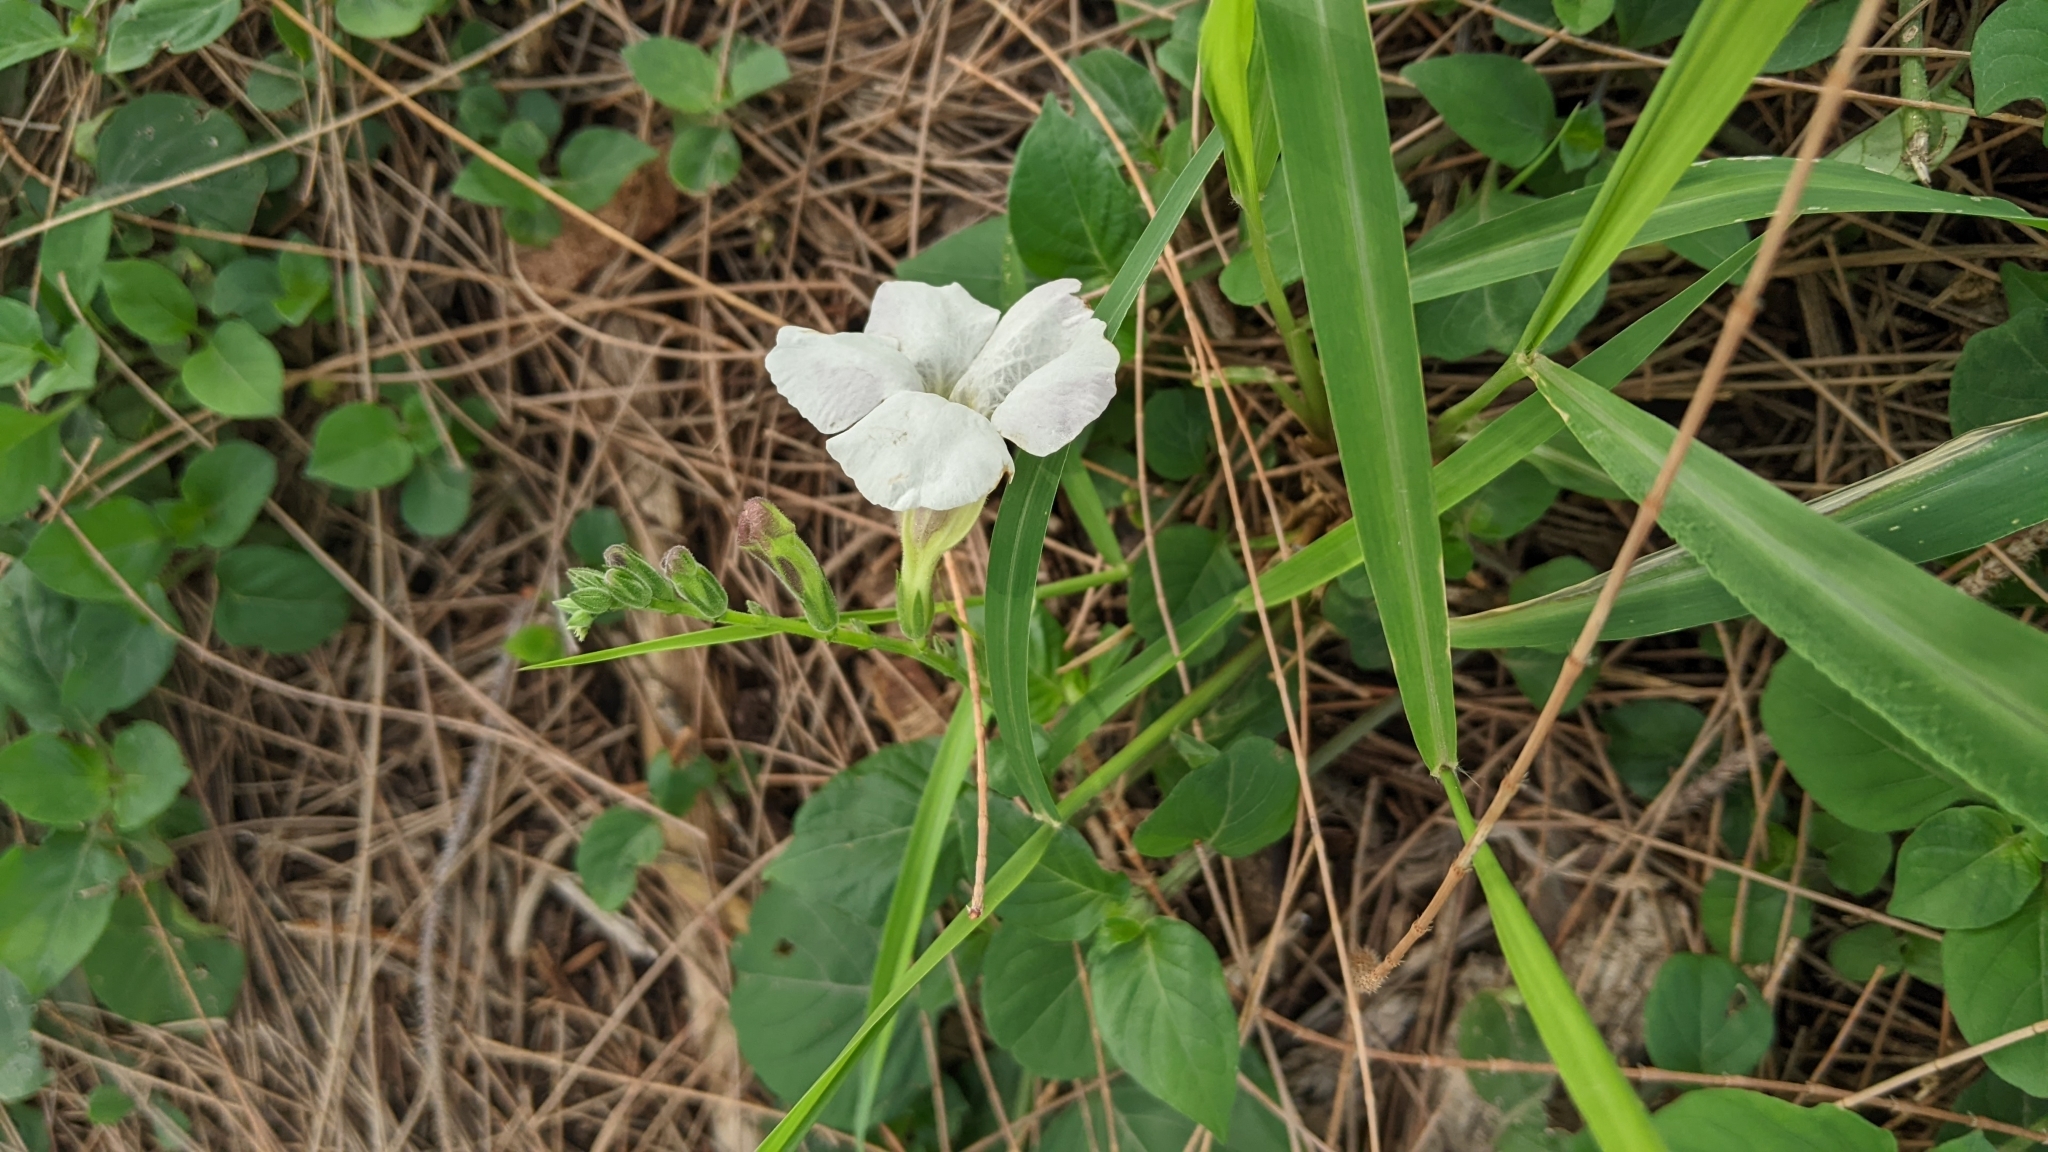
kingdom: Plantae
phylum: Tracheophyta
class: Magnoliopsida
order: Lamiales
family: Acanthaceae
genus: Asystasia
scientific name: Asystasia gangetica
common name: Chinese violet
